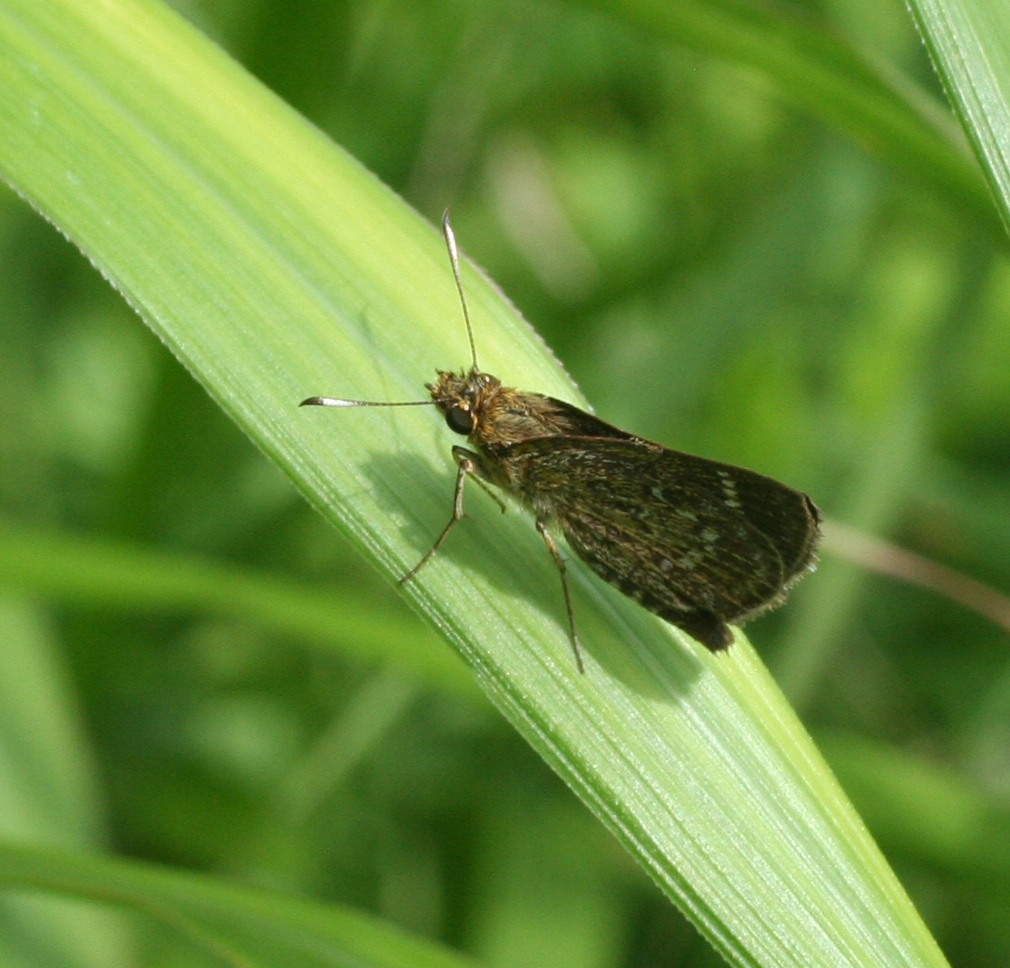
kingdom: Animalia
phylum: Arthropoda
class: Insecta
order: Lepidoptera
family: Hesperiidae
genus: Aeromachus
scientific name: Aeromachus inachus
